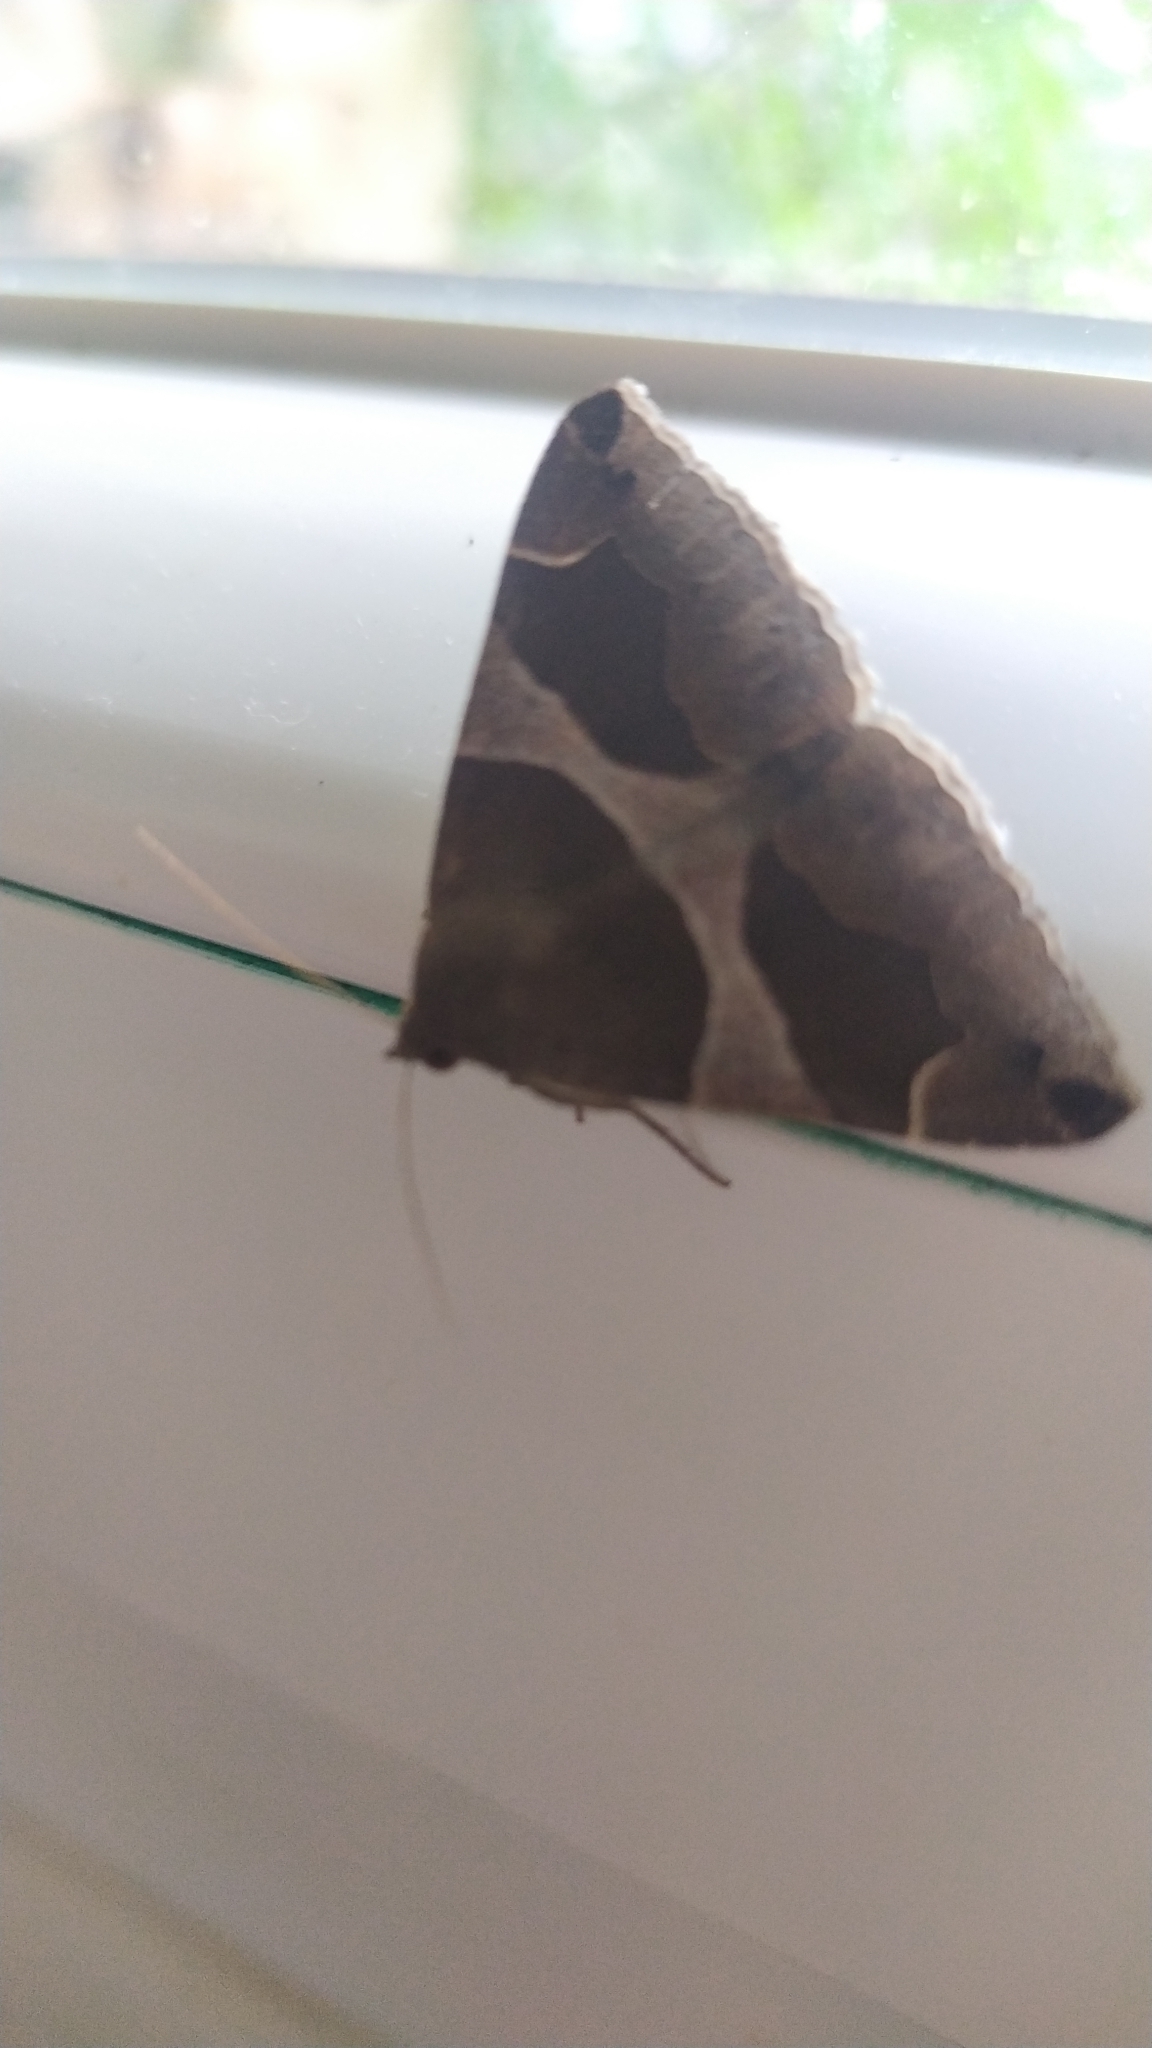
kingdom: Animalia
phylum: Arthropoda
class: Insecta
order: Lepidoptera
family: Erebidae
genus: Dysgonia
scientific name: Dysgonia algira
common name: Passenger
